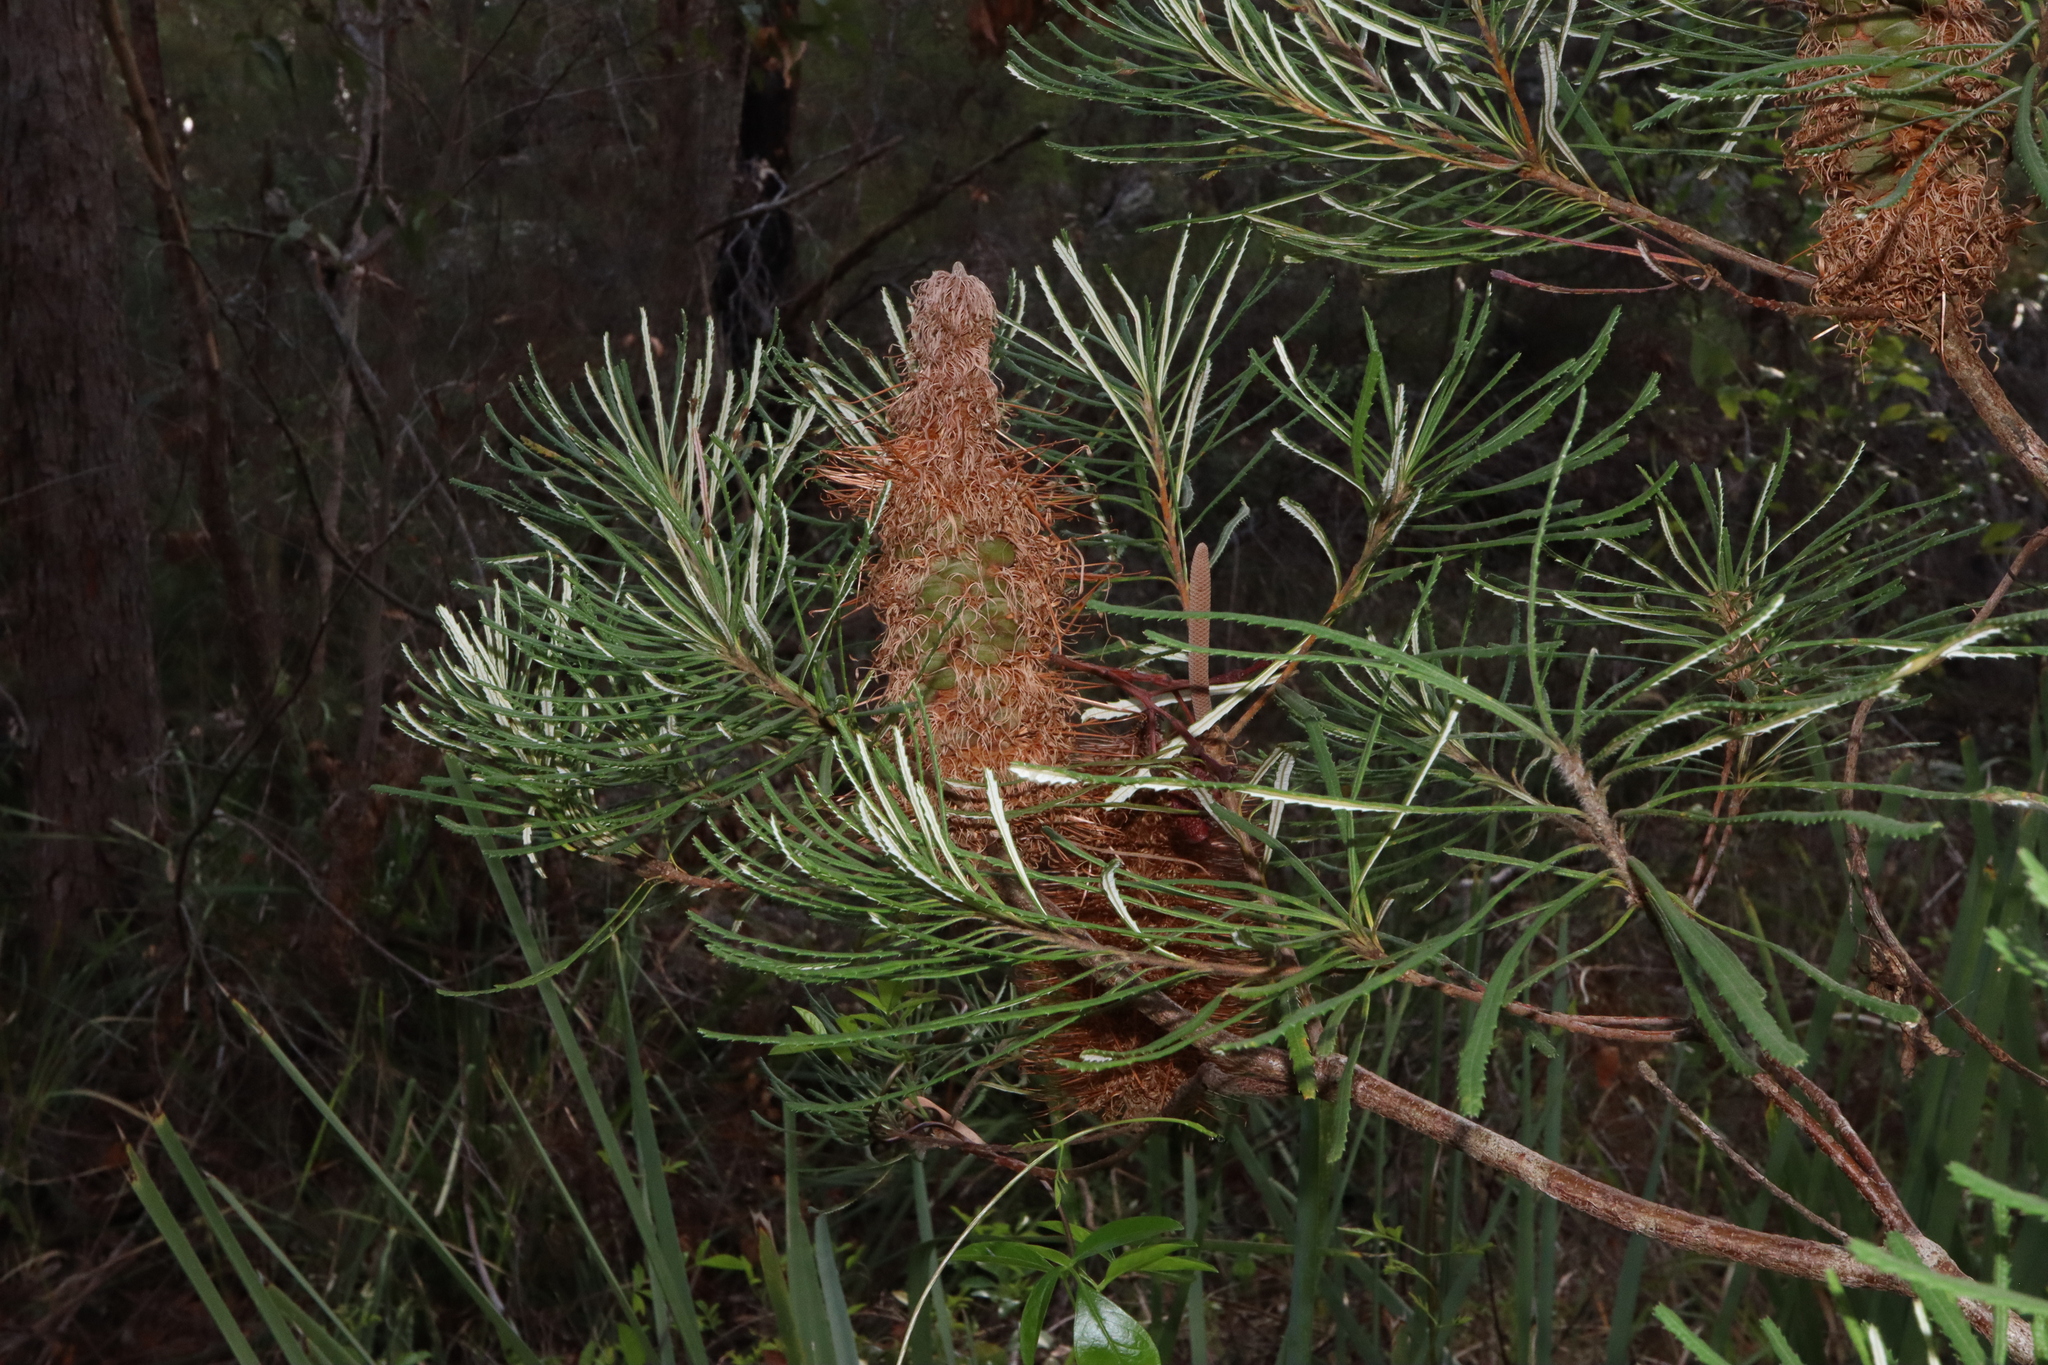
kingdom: Plantae
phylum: Tracheophyta
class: Magnoliopsida
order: Proteales
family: Proteaceae
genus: Banksia
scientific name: Banksia spinulosa
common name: Hairpin banksia
